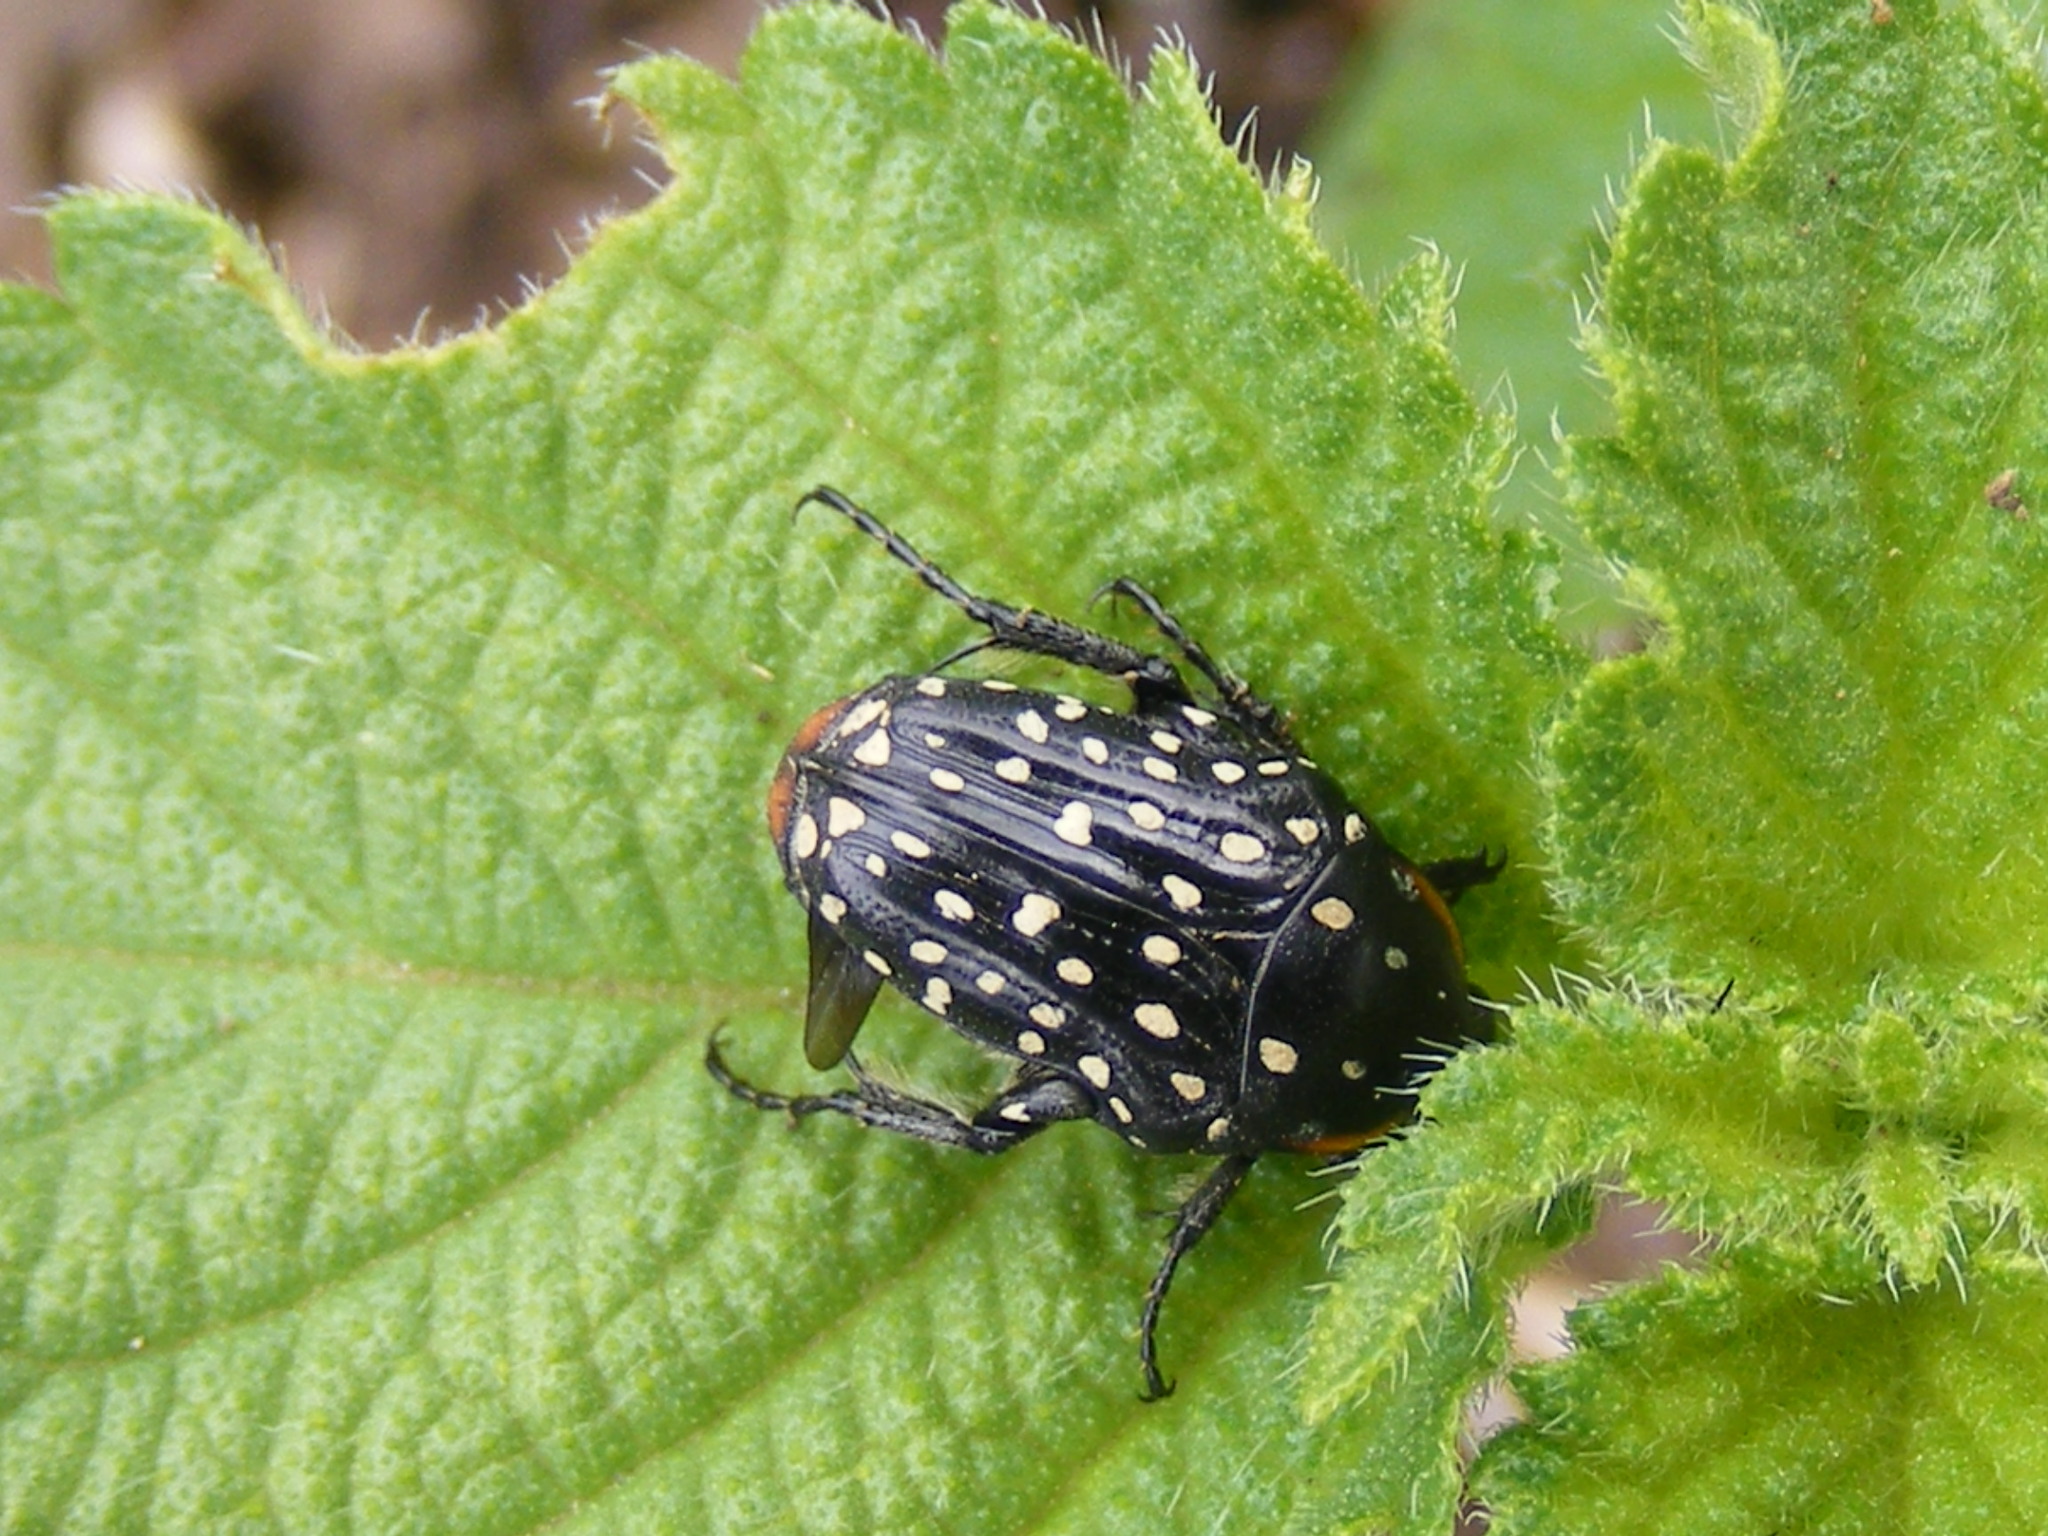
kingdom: Animalia
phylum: Arthropoda
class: Insecta
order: Coleoptera
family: Scarabaeidae
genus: Oxythyrea
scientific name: Oxythyrea
